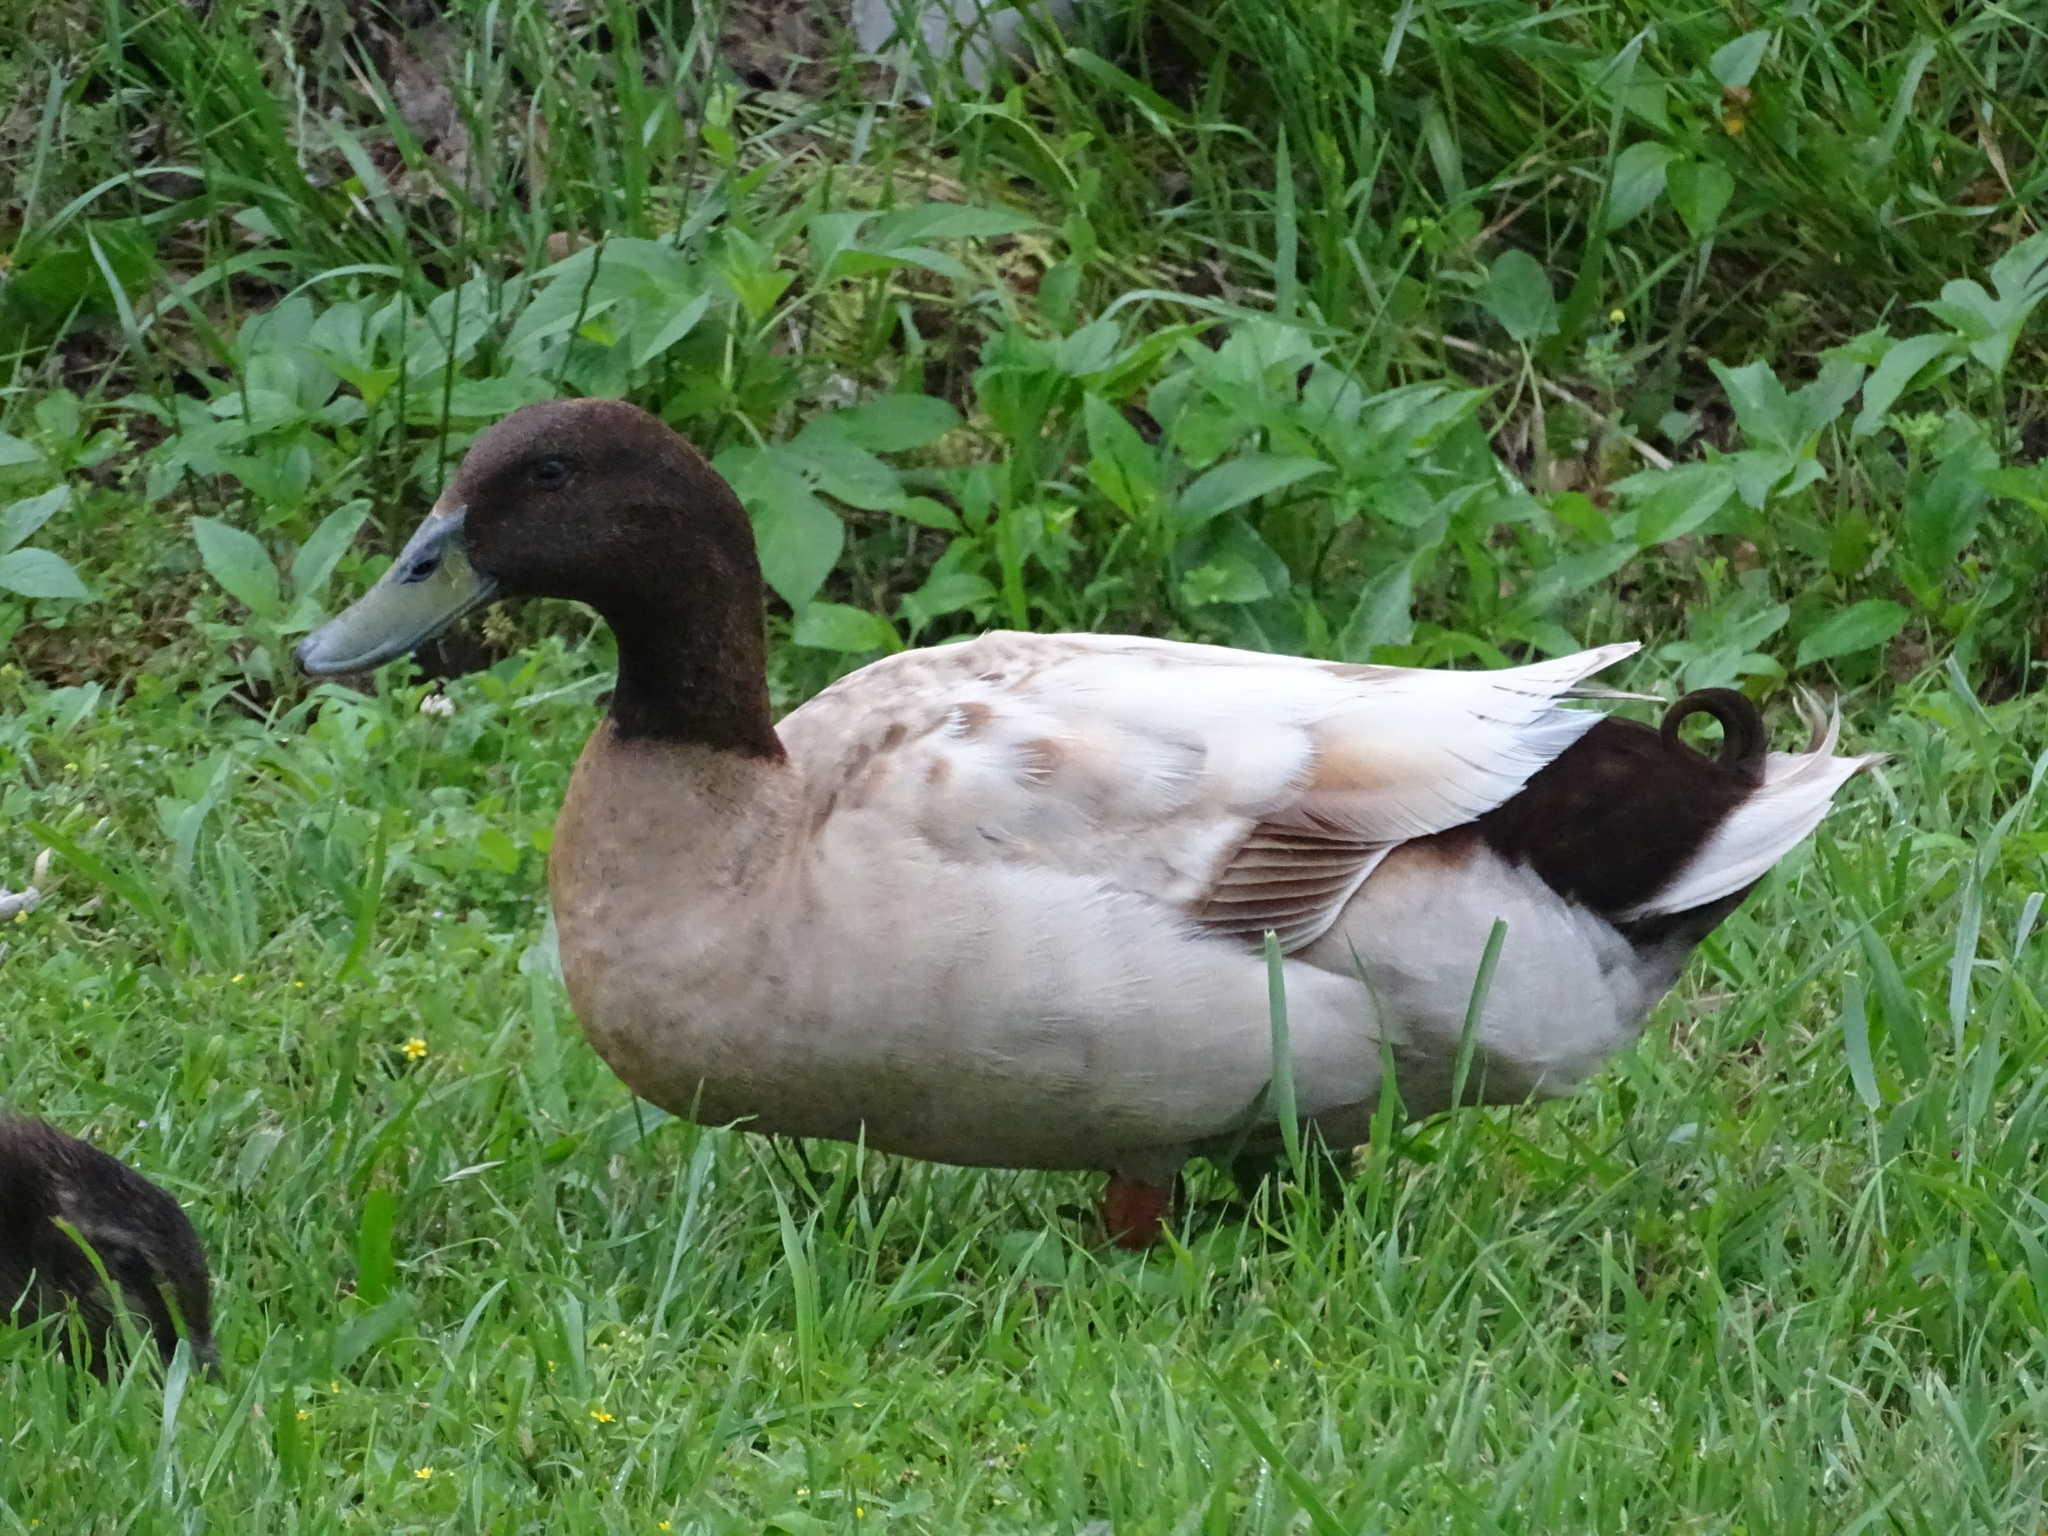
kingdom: Animalia
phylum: Chordata
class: Aves
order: Anseriformes
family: Anatidae
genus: Anas
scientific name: Anas platyrhynchos
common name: Mallard
